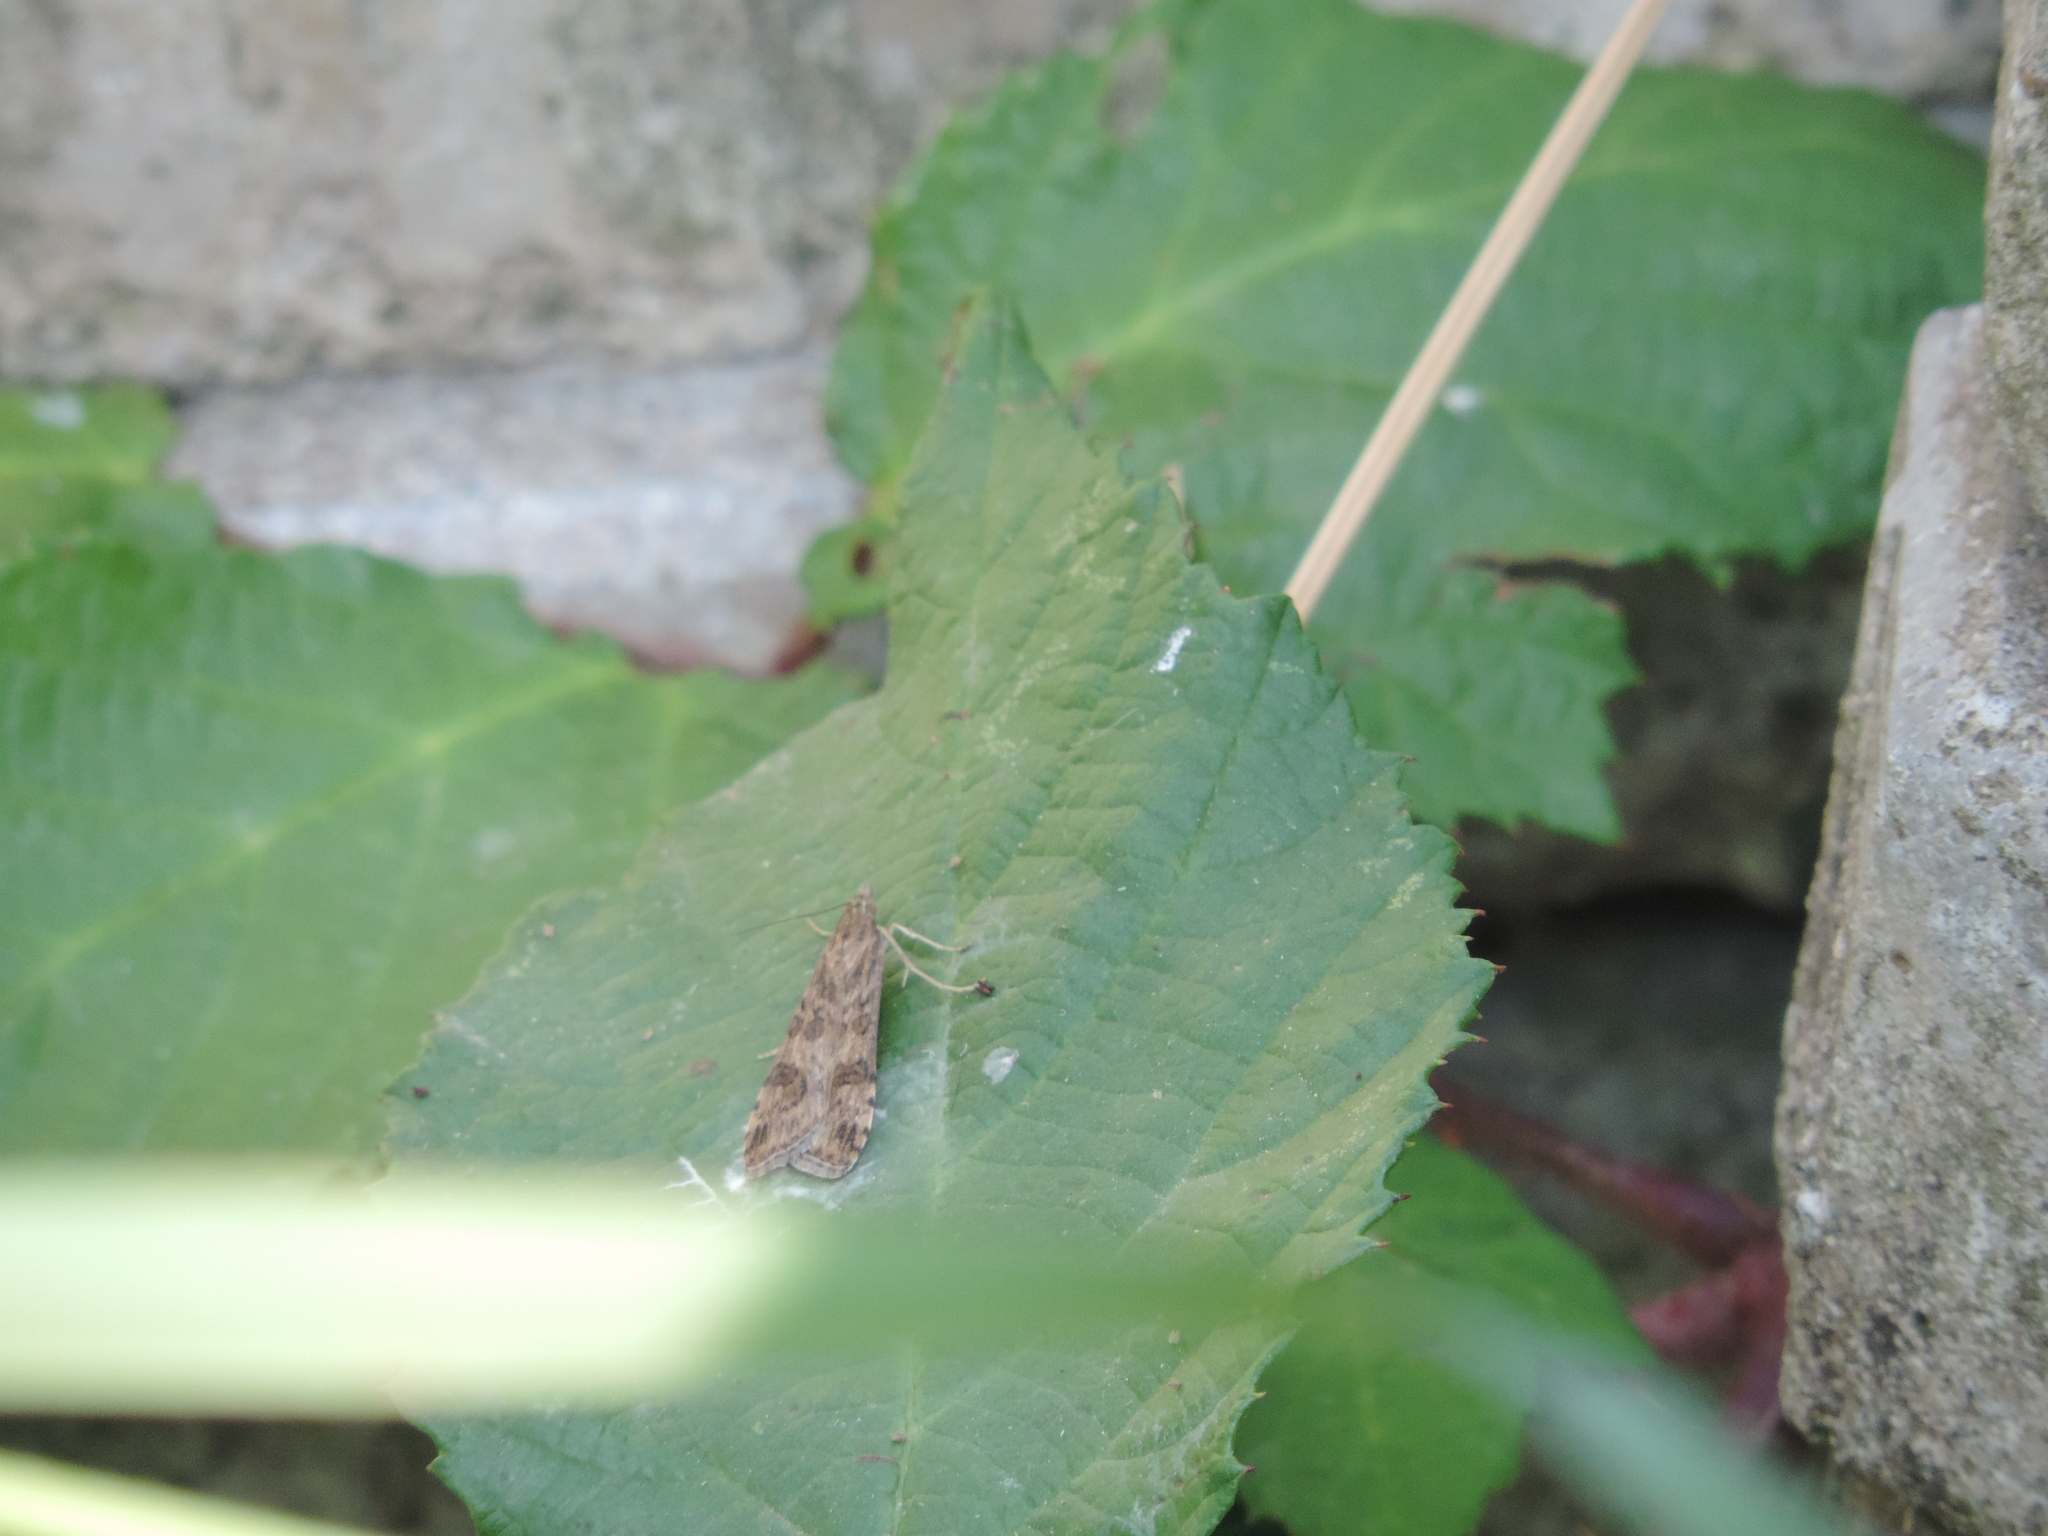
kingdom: Animalia
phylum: Arthropoda
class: Insecta
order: Lepidoptera
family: Crambidae
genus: Nomophila
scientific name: Nomophila noctuella
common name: Rush veneer
